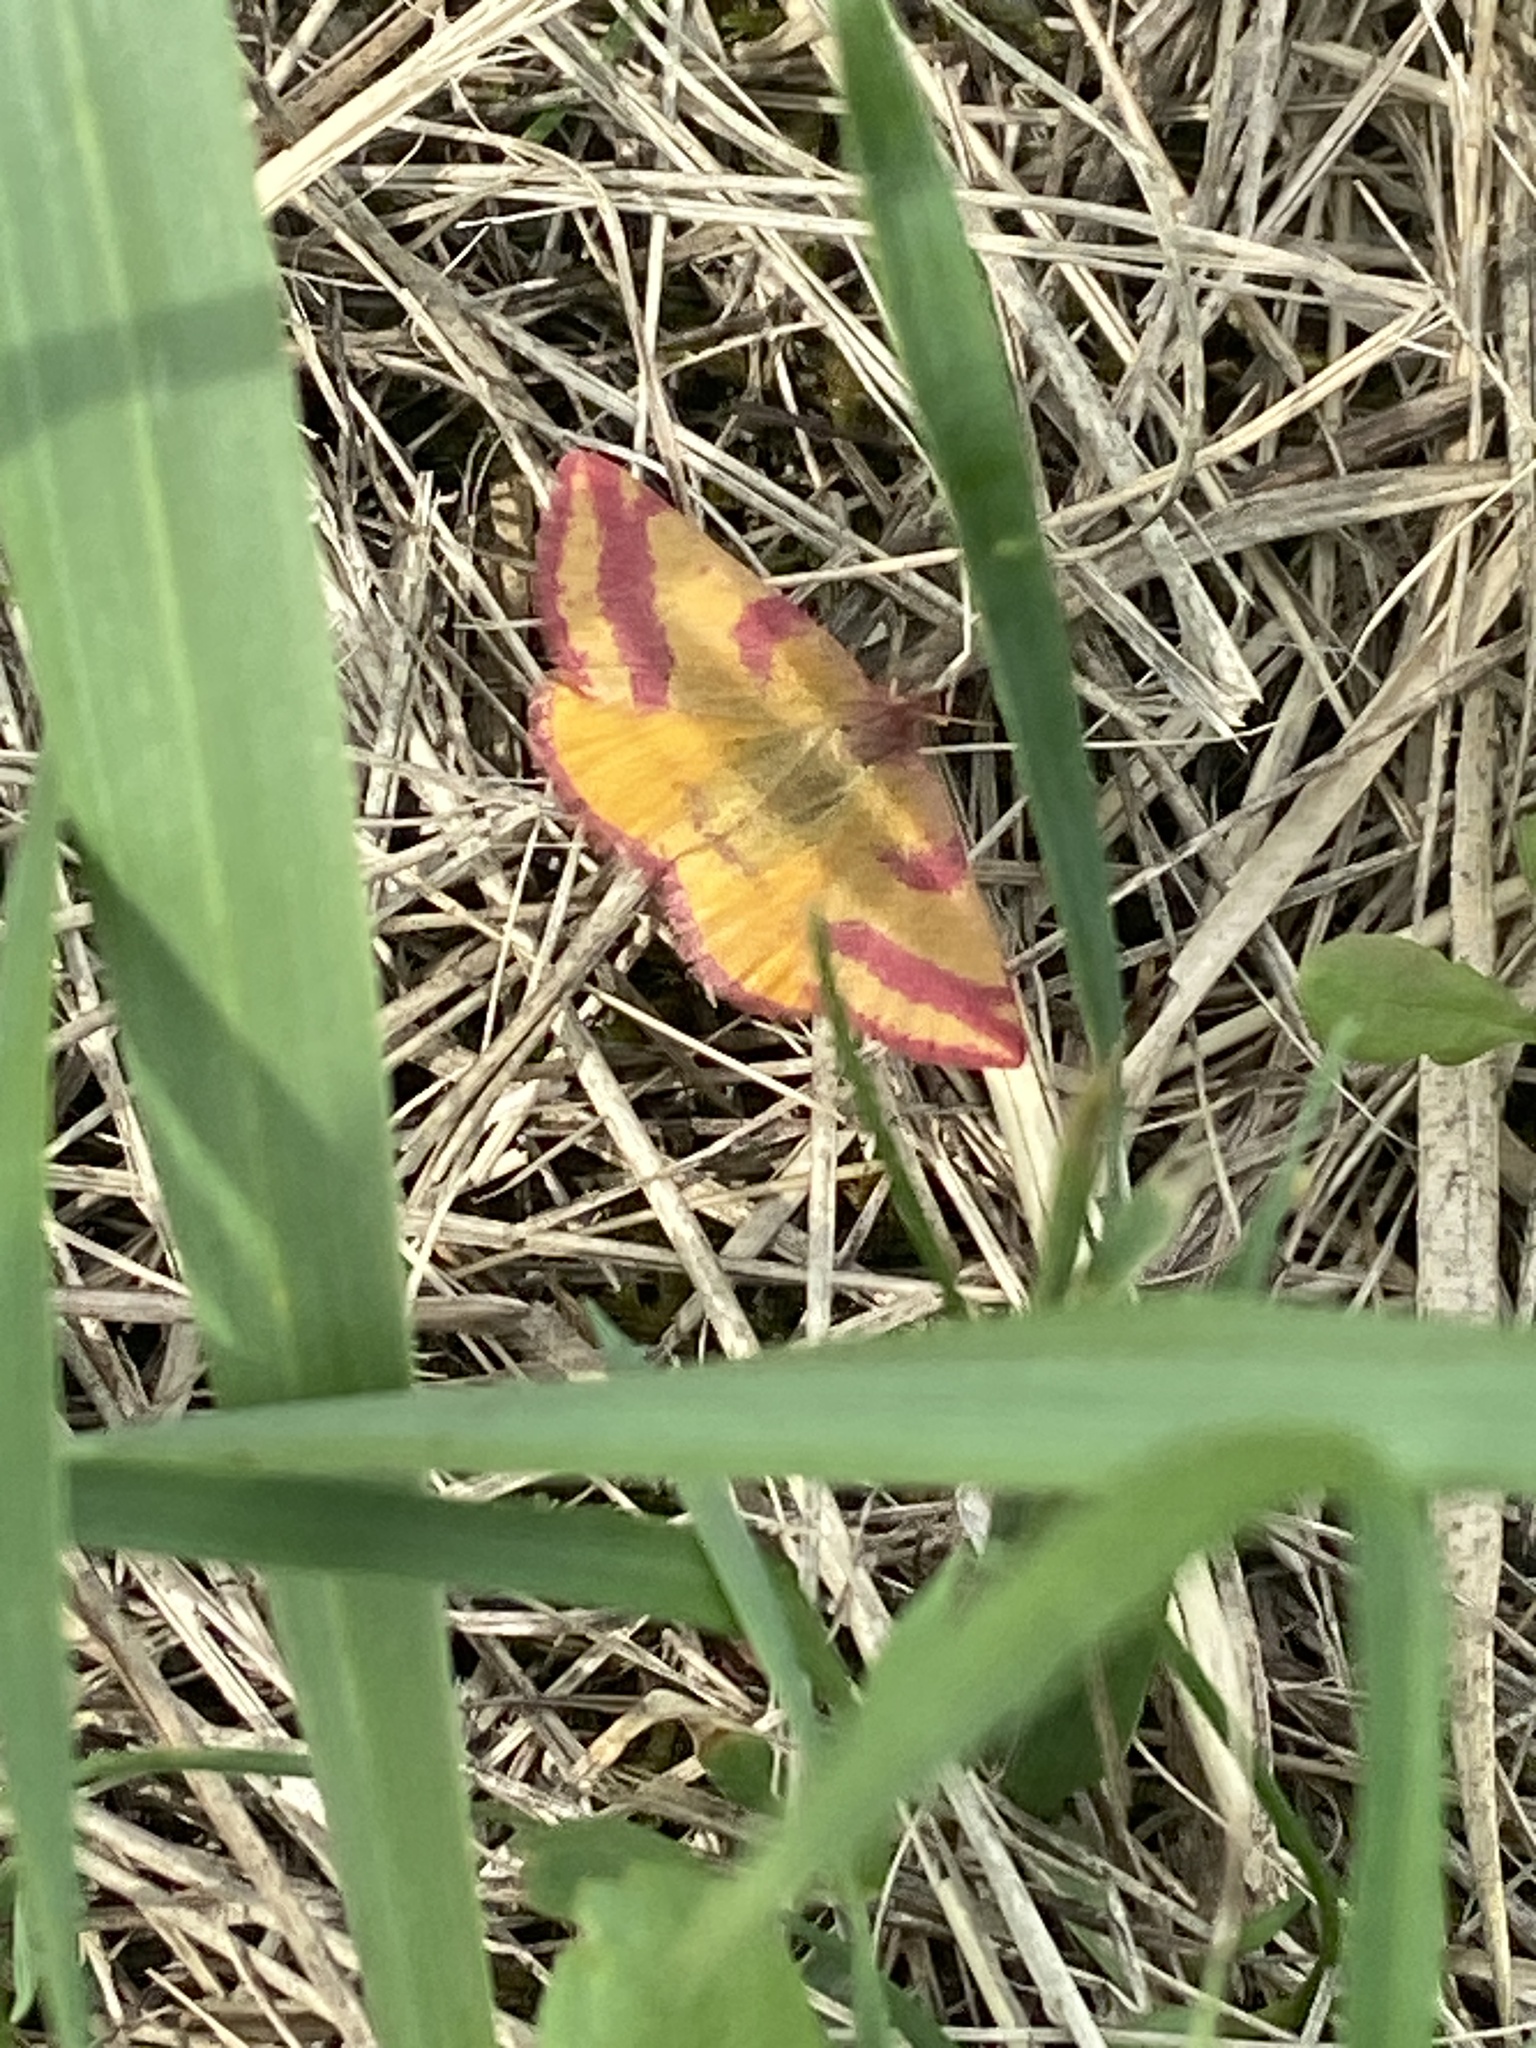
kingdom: Animalia
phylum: Arthropoda
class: Insecta
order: Lepidoptera
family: Geometridae
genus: Lythria
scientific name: Lythria cruentaria
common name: Purple-barred yellow
